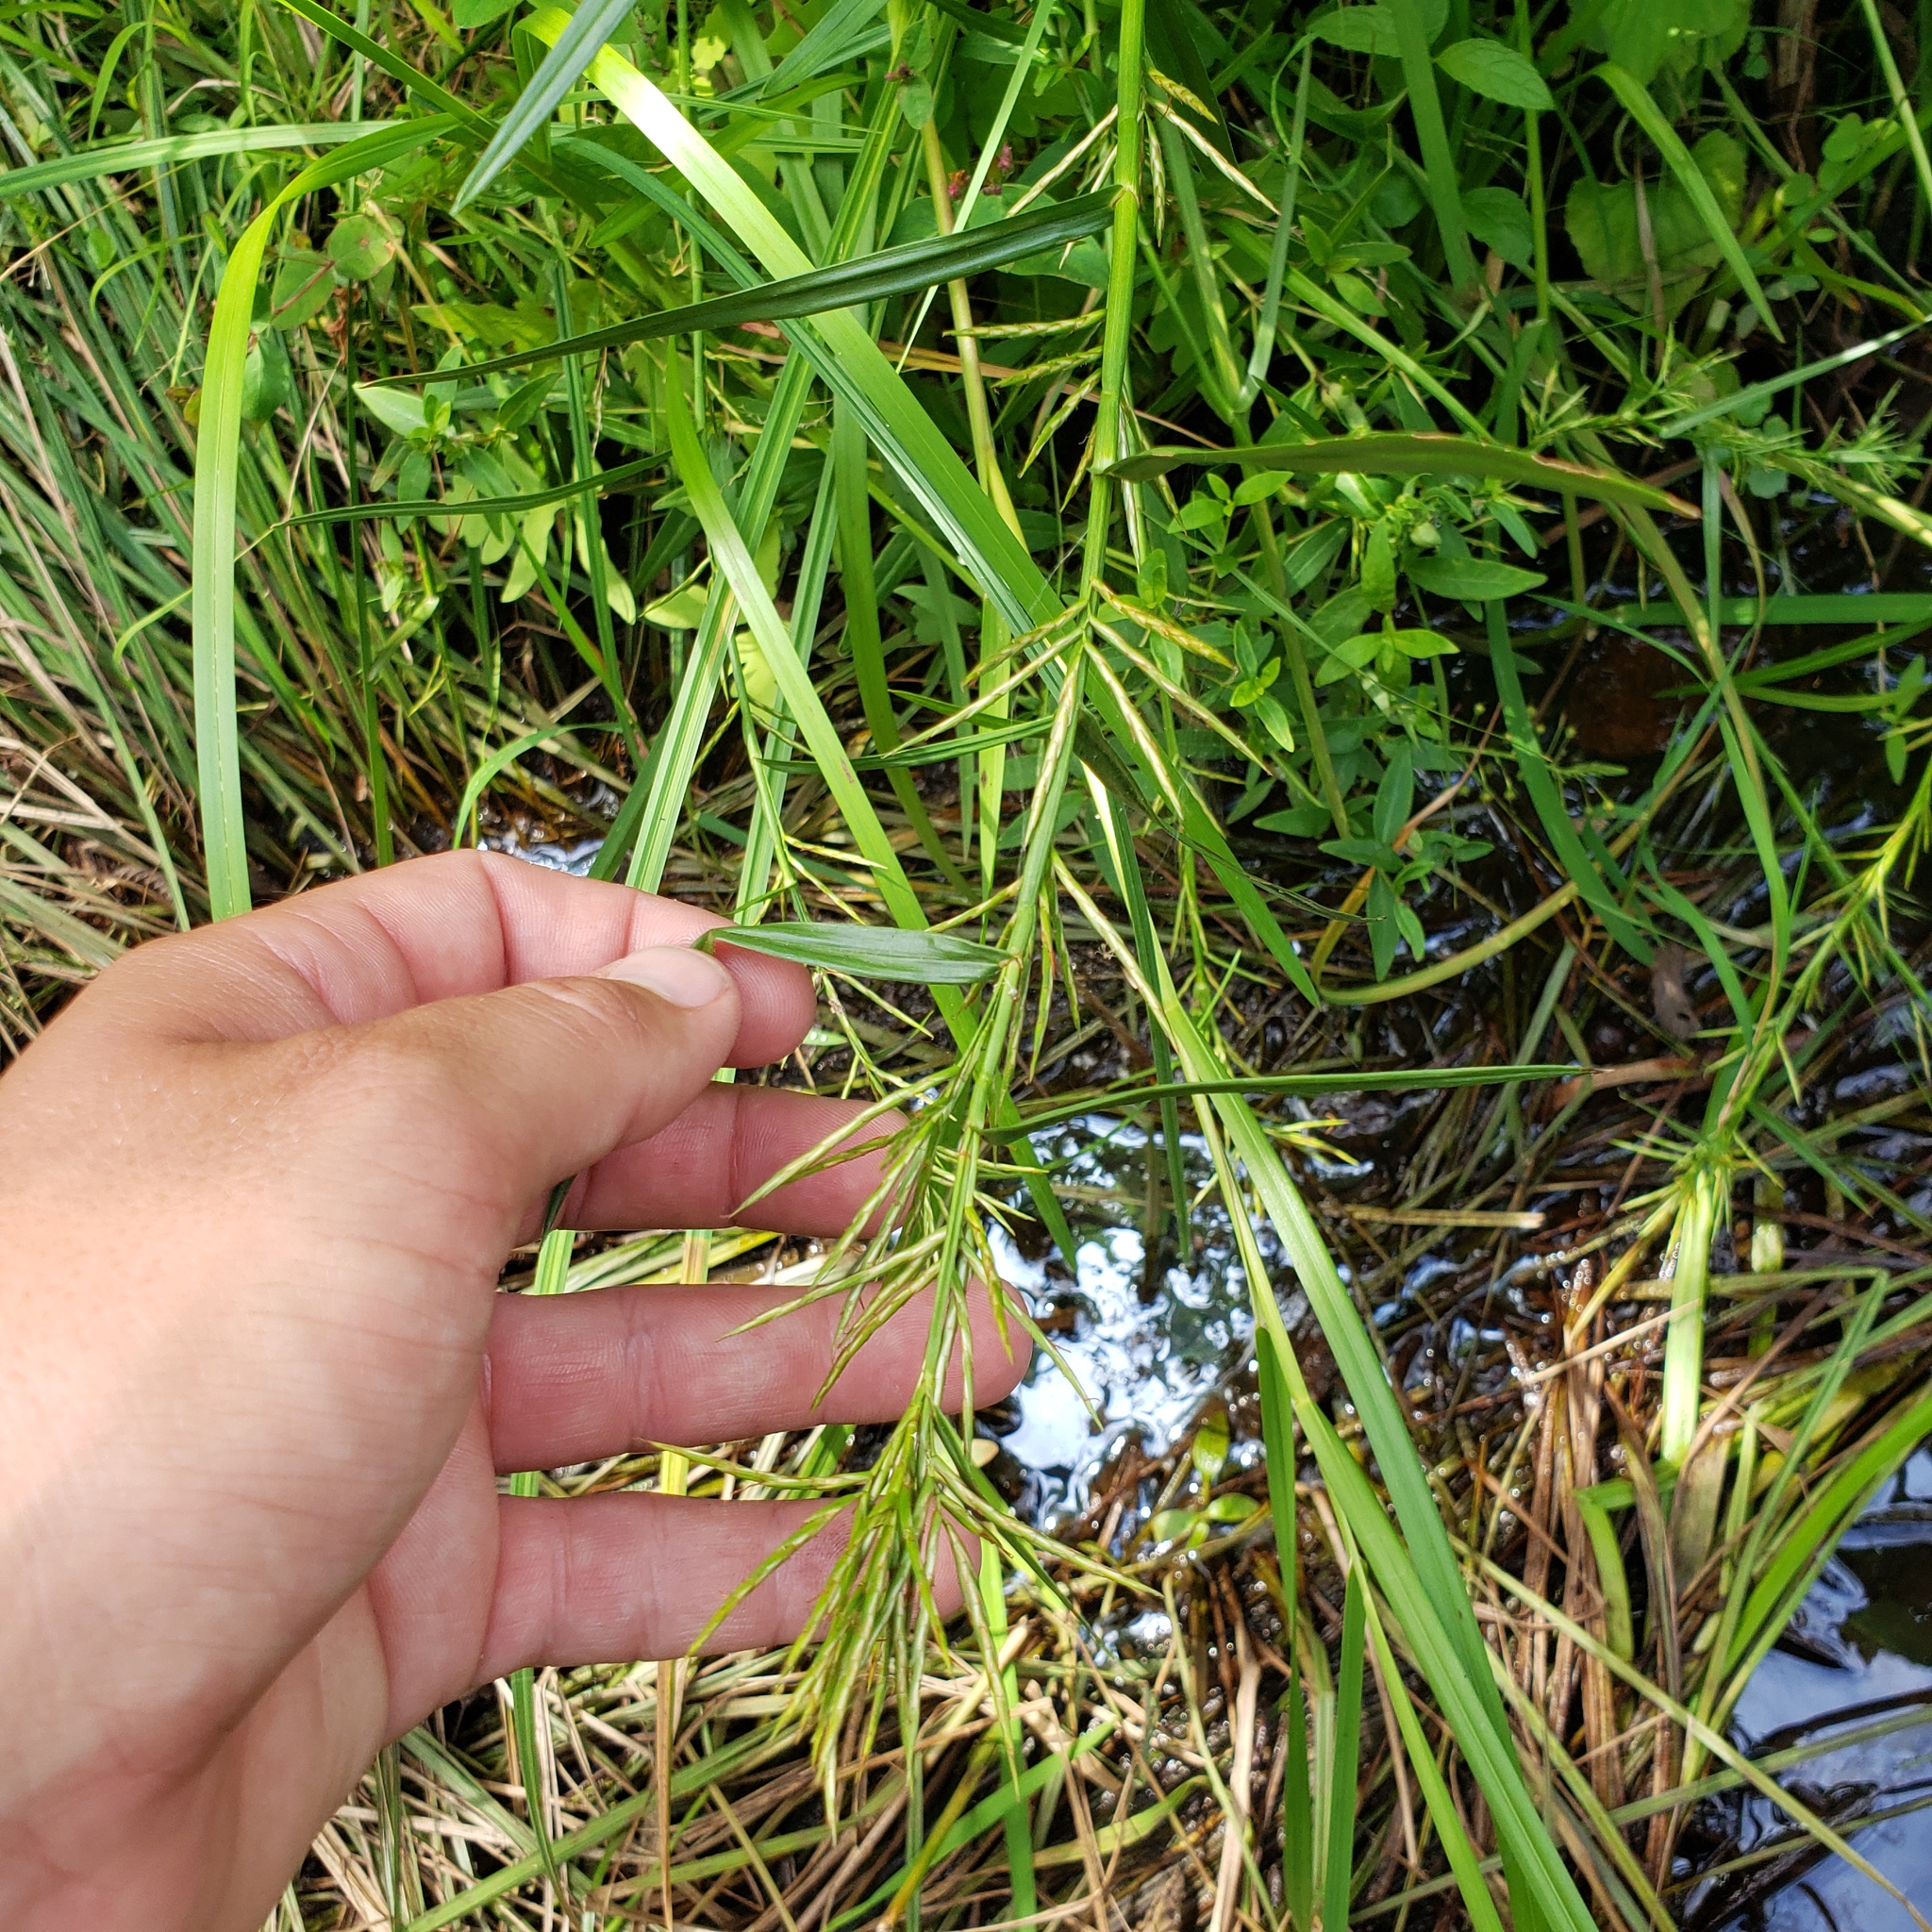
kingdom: Plantae
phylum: Tracheophyta
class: Liliopsida
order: Poales
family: Cyperaceae
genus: Dulichium
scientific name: Dulichium arundinaceum
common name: Three-way sedge
